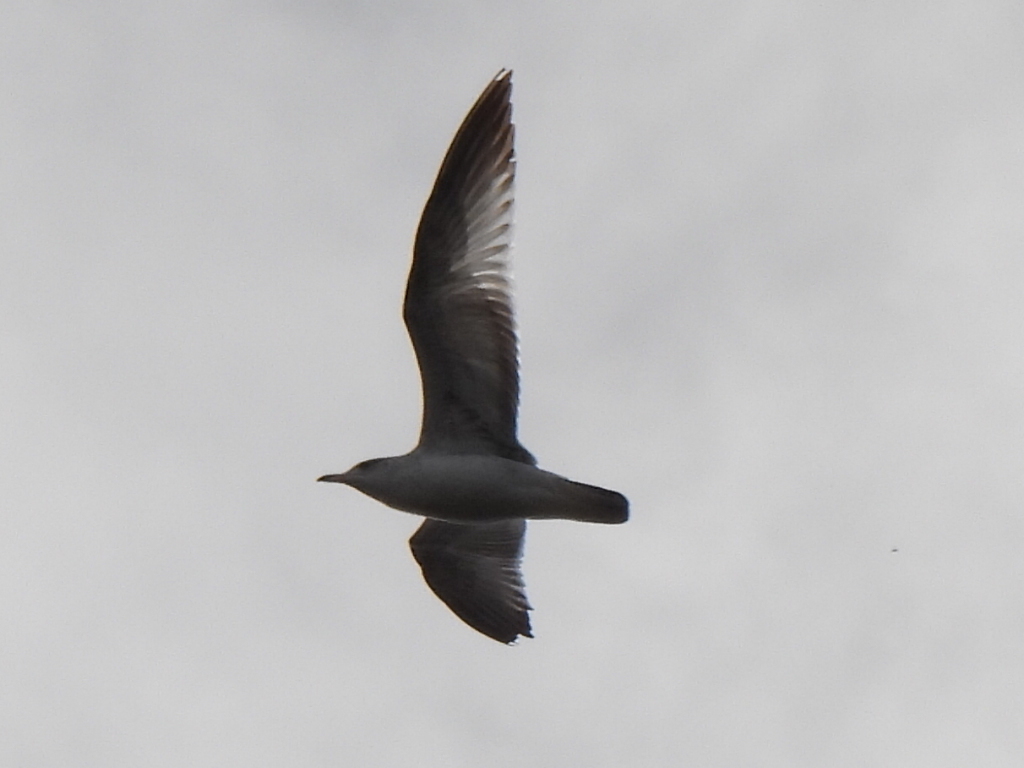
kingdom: Animalia
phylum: Chordata
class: Aves
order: Charadriiformes
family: Laridae
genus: Larus
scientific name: Larus delawarensis
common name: Ring-billed gull
